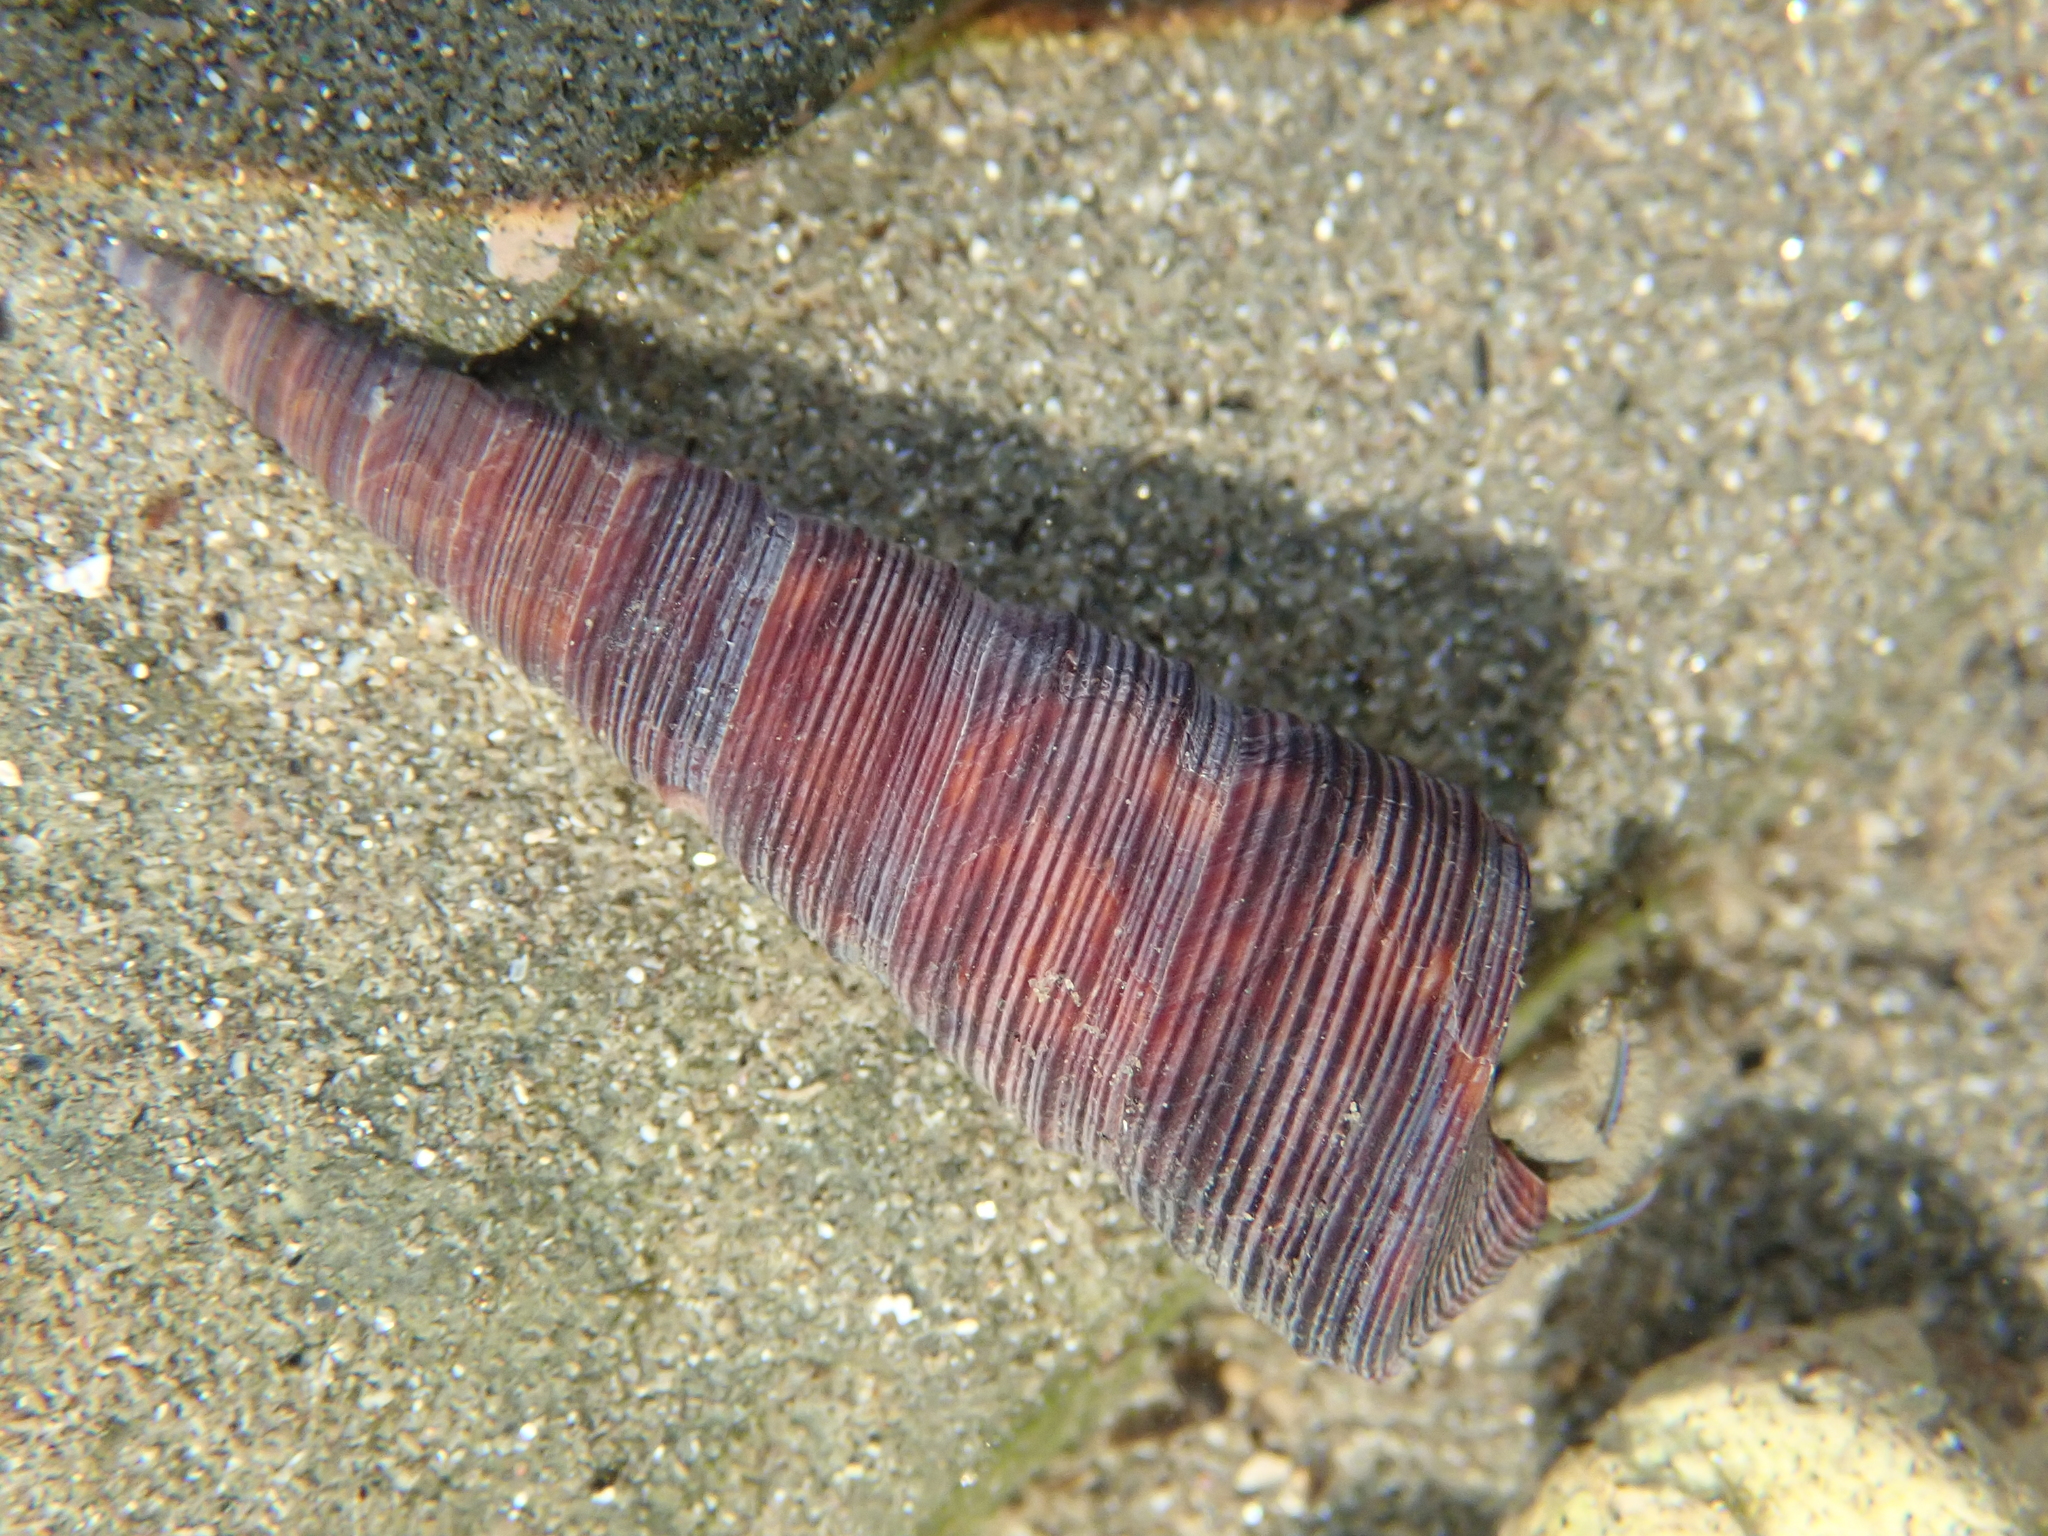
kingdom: Animalia
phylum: Mollusca
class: Gastropoda
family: Turritellidae
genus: Maoricolpus
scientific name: Maoricolpus roseus
